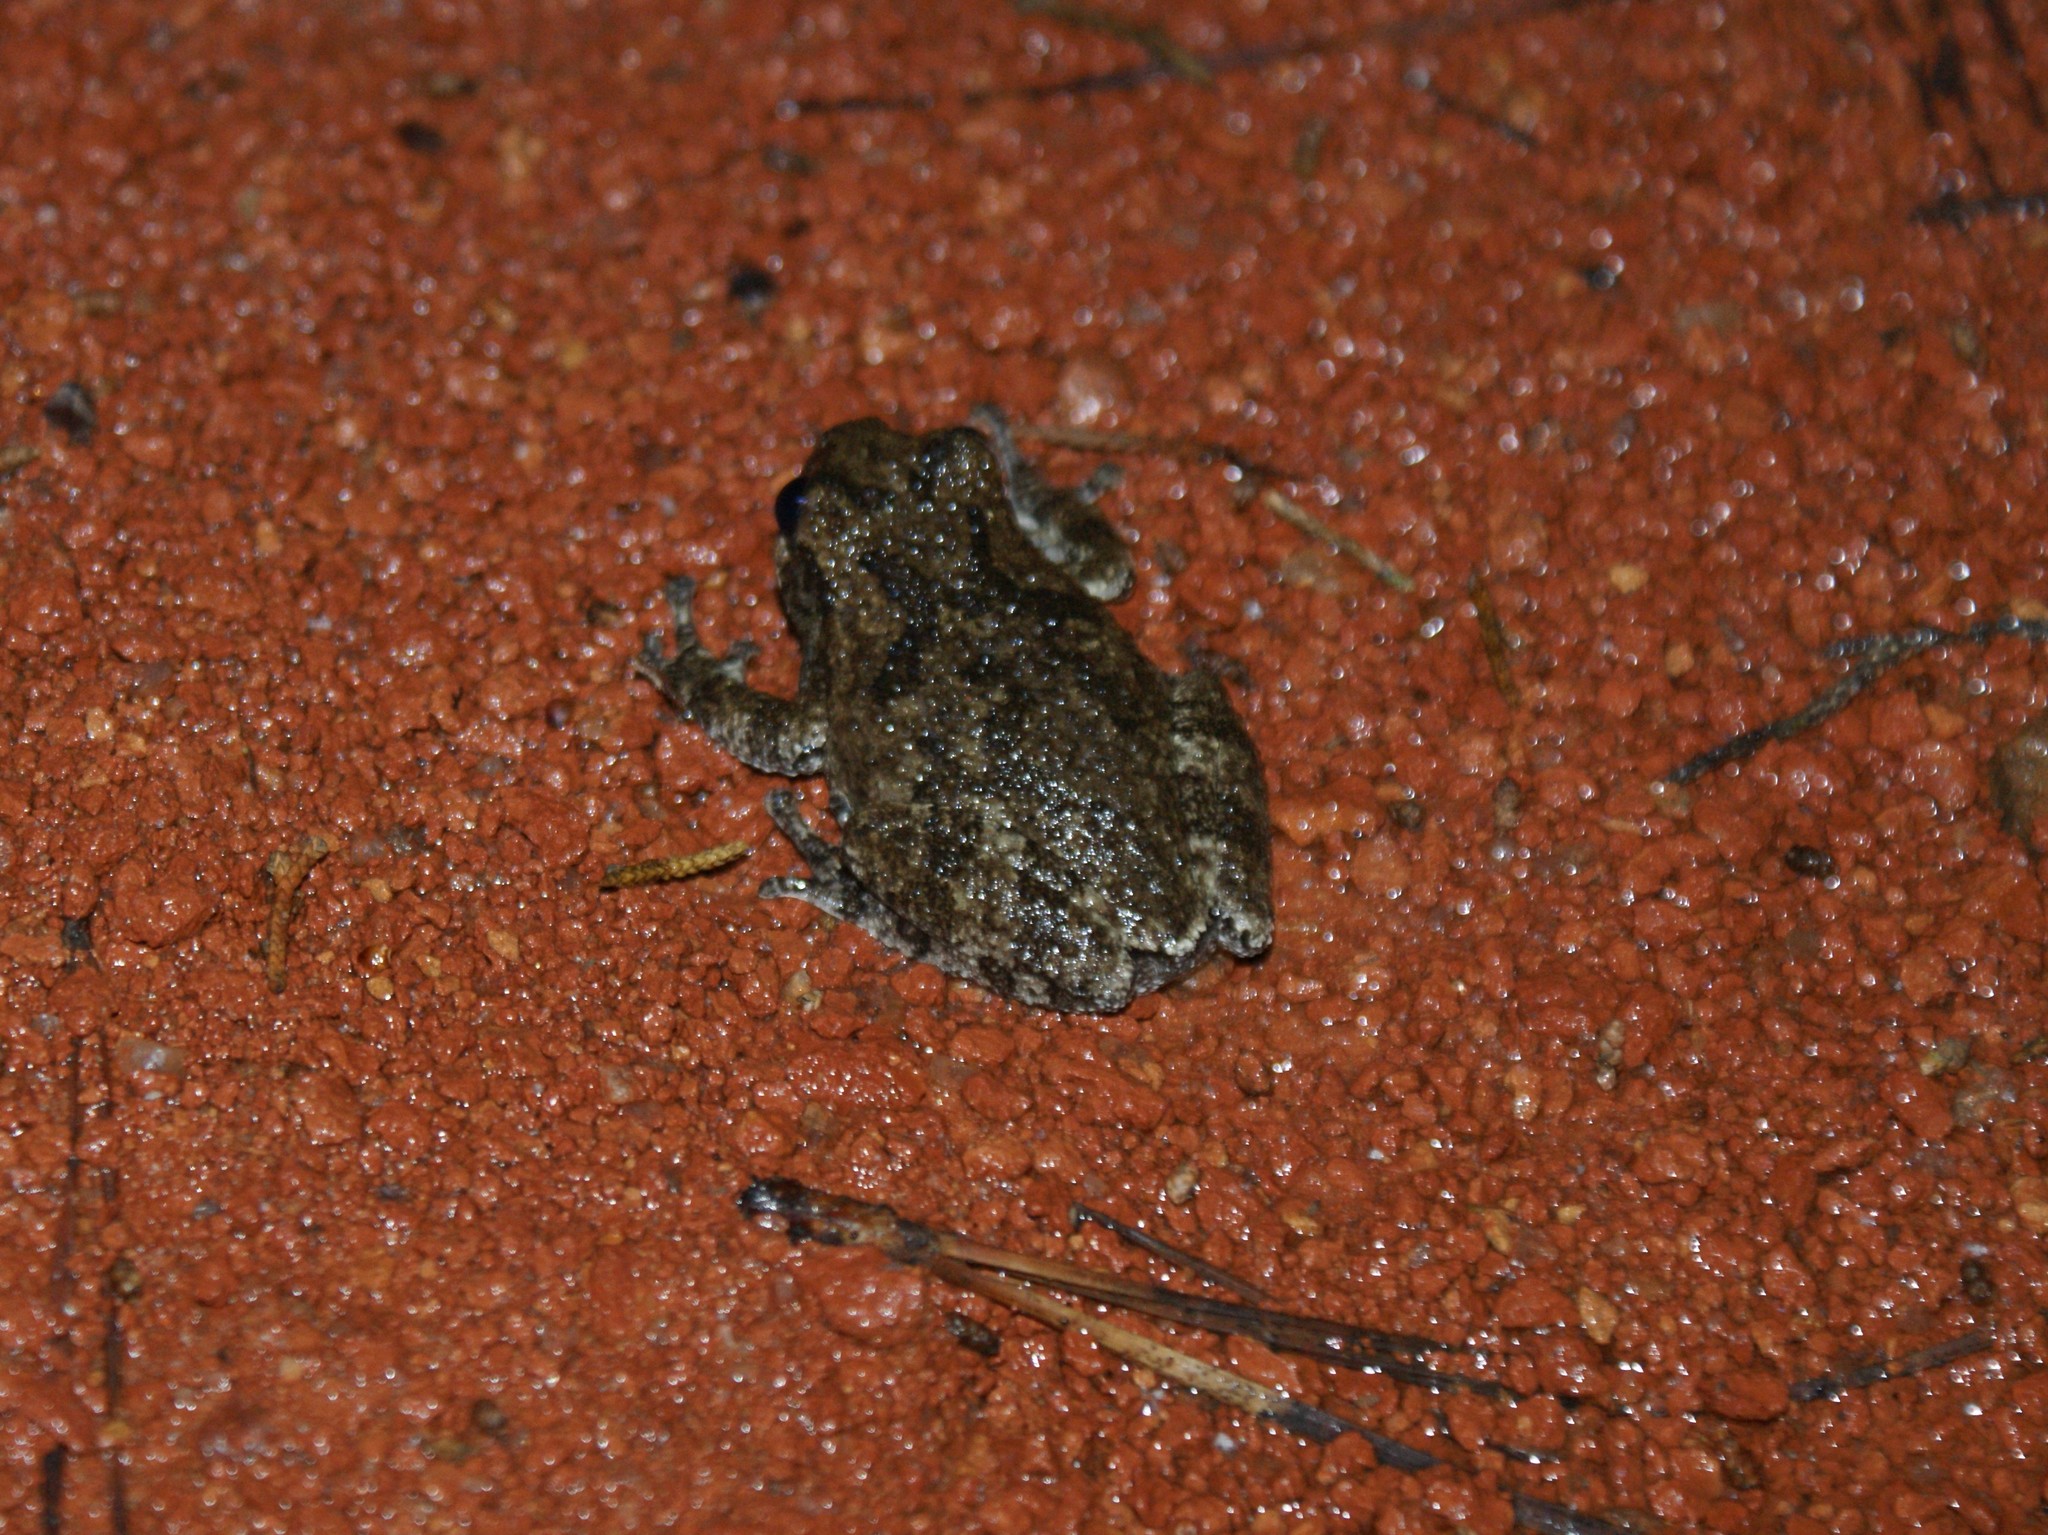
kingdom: Animalia
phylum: Chordata
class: Amphibia
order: Anura
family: Hylidae
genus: Dryophytes
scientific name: Dryophytes chrysoscelis
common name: Cope's gray treefrog
